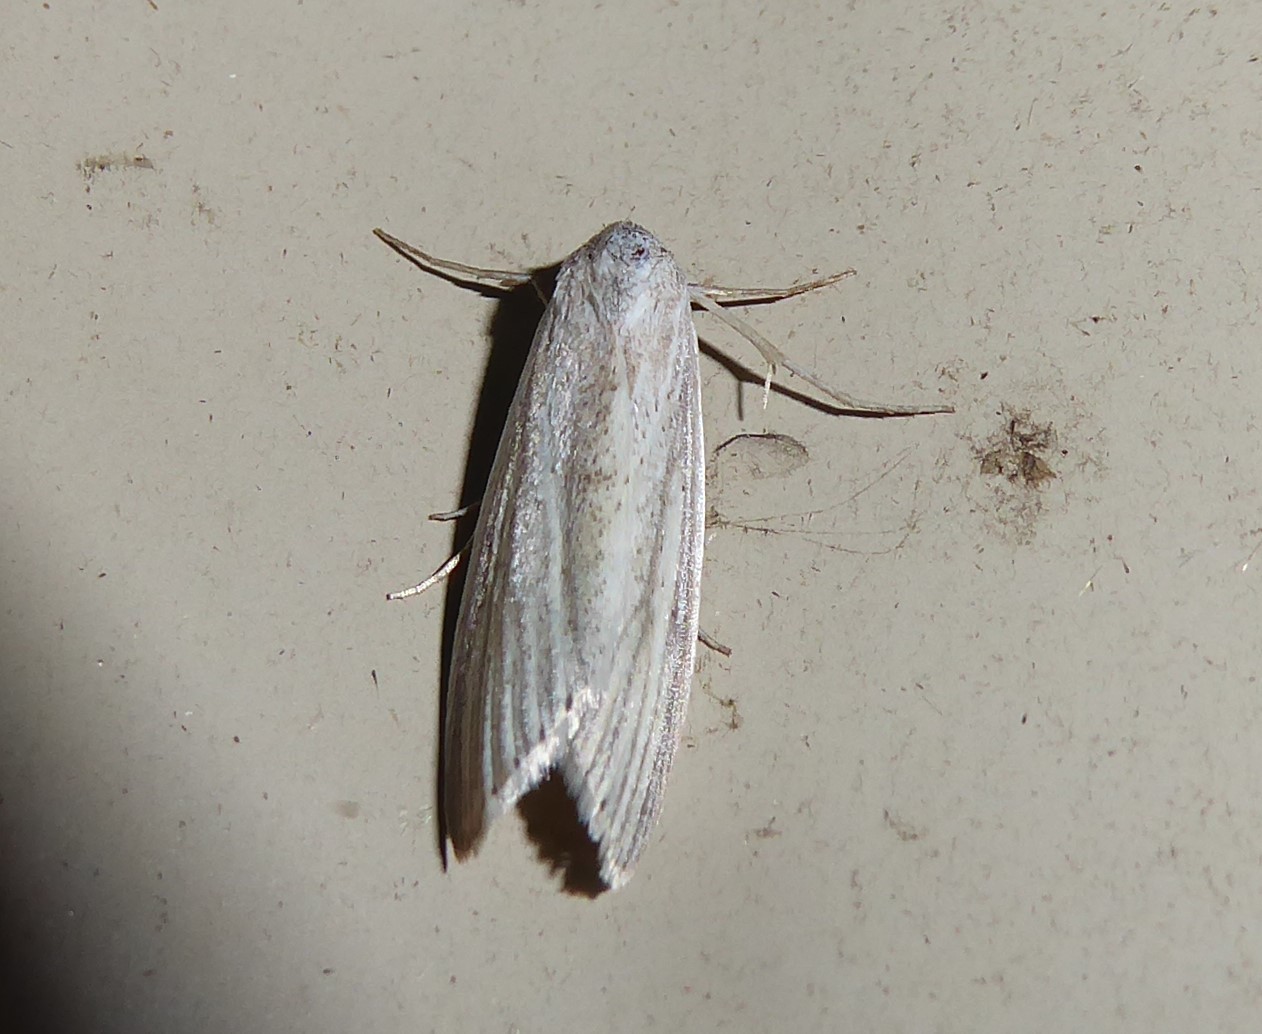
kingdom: Animalia
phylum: Arthropoda
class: Insecta
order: Lepidoptera
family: Erebidae
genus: Prionopterina
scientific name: Prionopterina grammatistis
